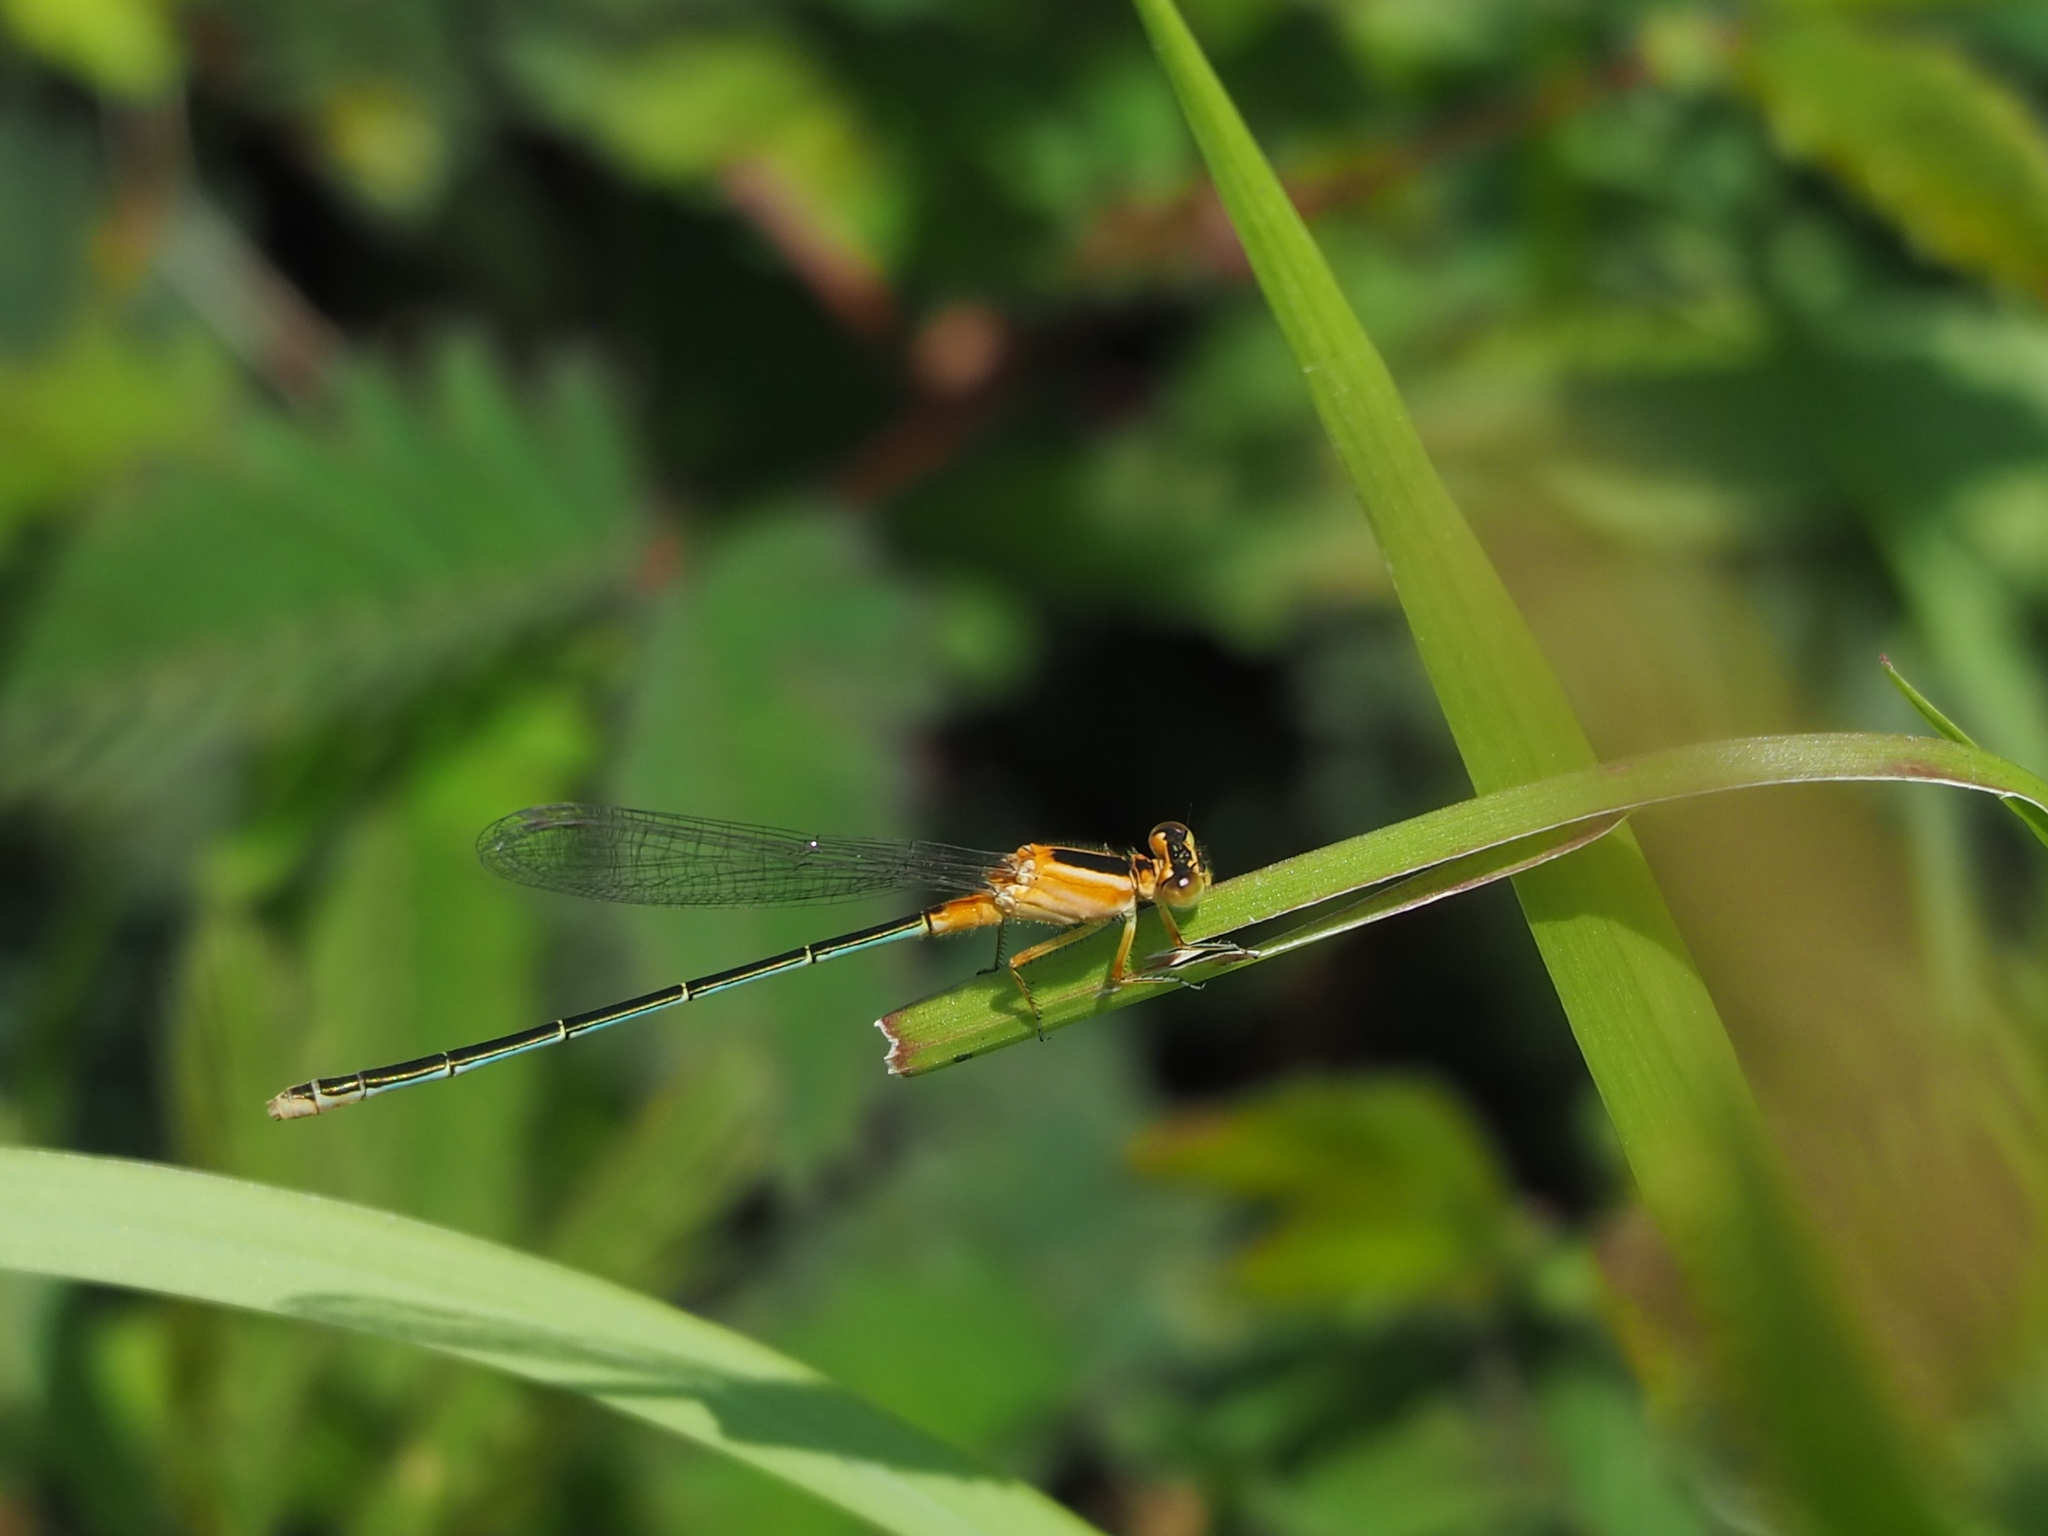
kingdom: Animalia
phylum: Arthropoda
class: Insecta
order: Odonata
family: Coenagrionidae
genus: Ischnura
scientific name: Ischnura senegalensis
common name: Tropical bluetail
